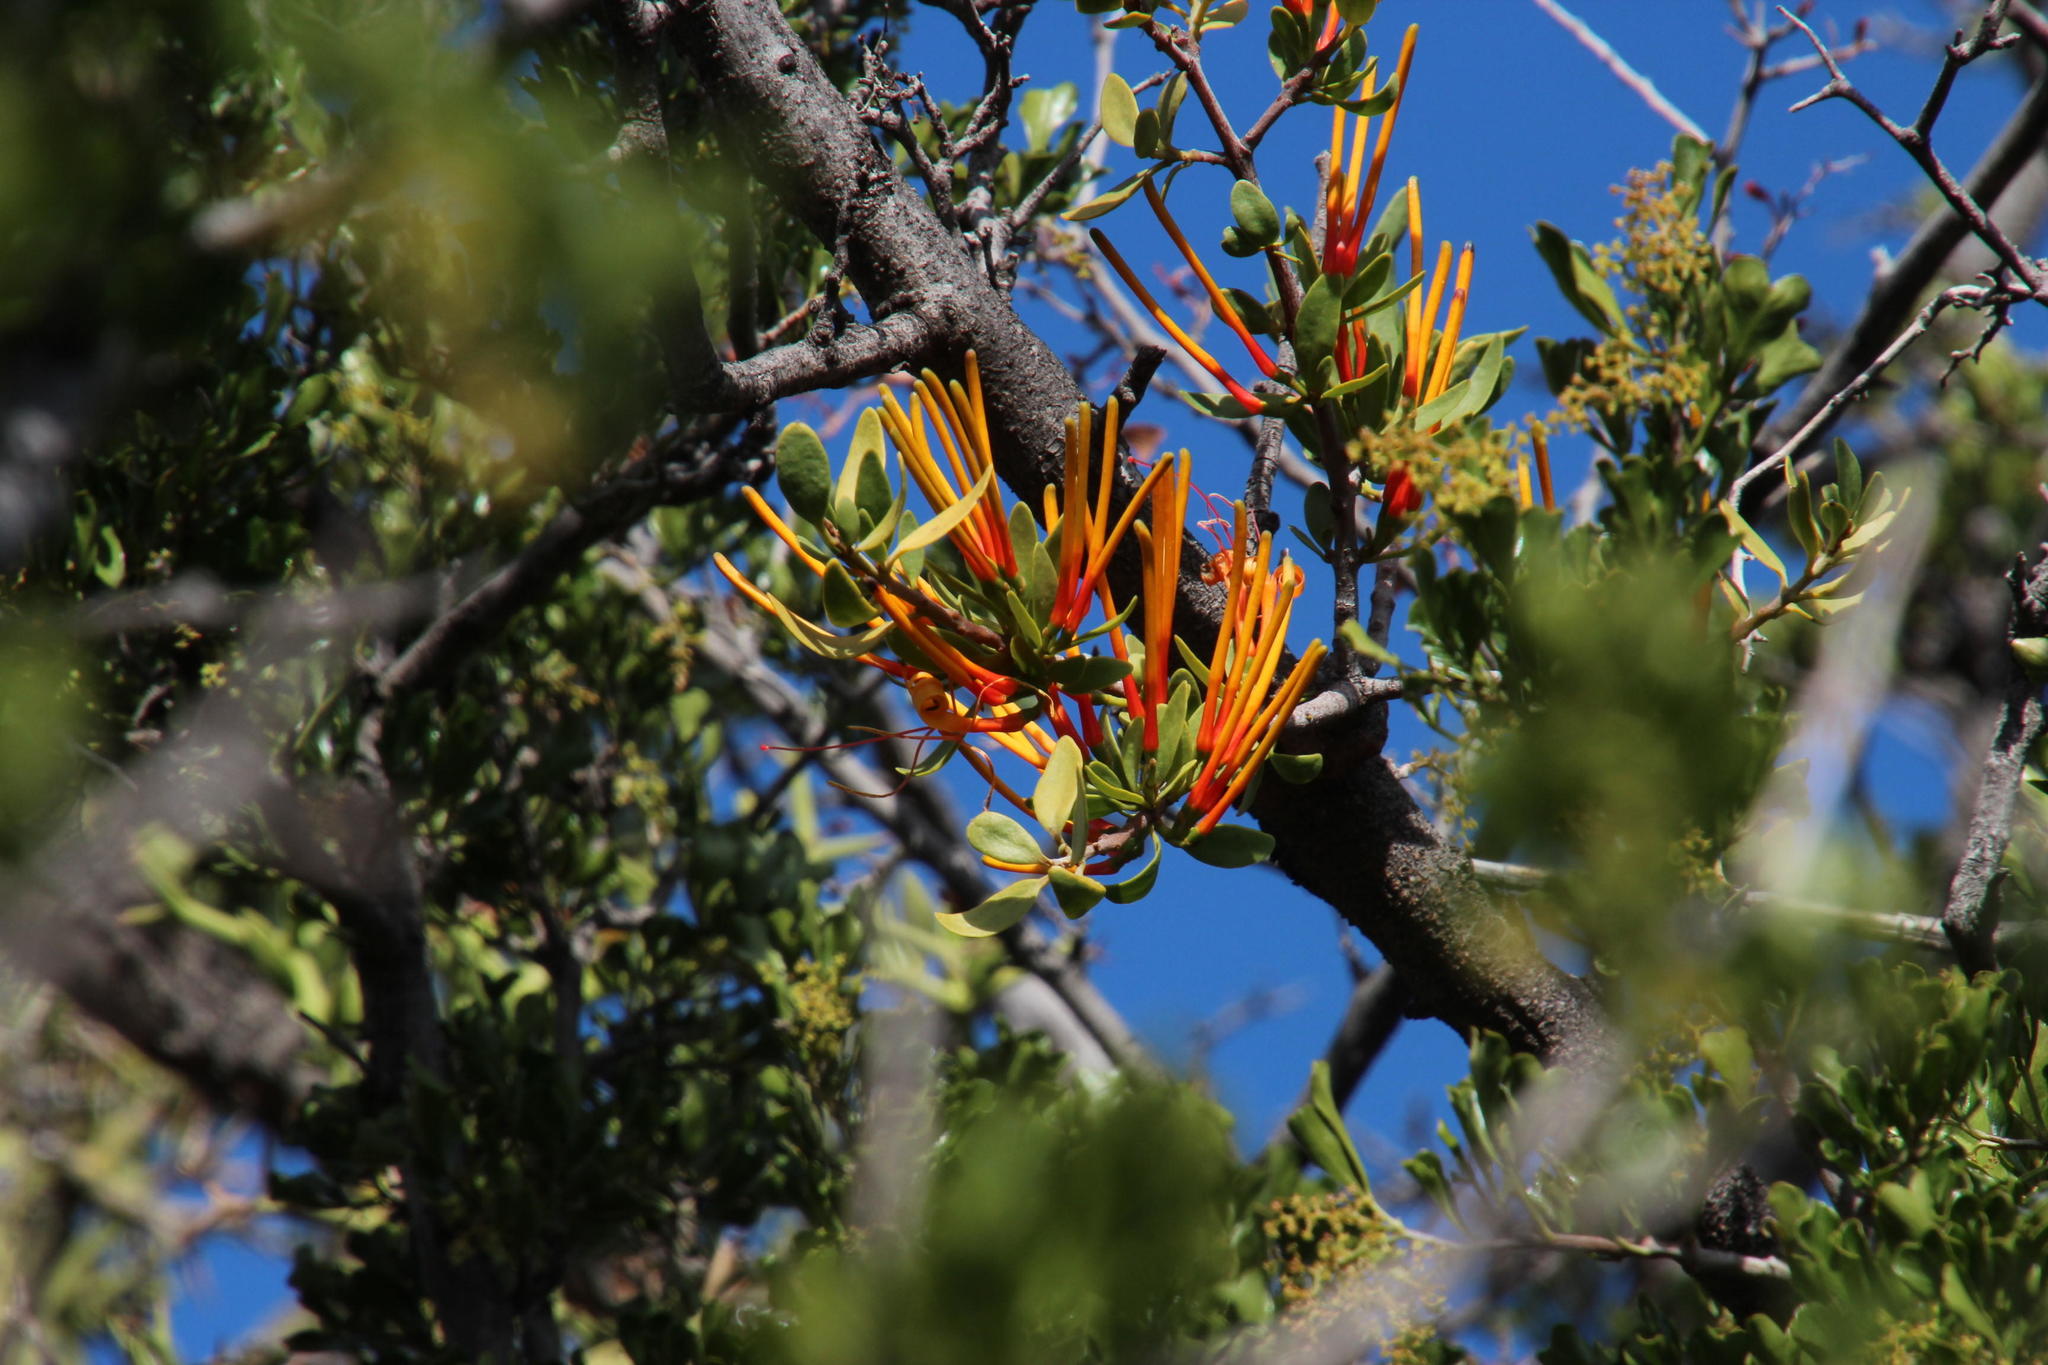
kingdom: Plantae
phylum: Tracheophyta
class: Magnoliopsida
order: Sapindales
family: Anacardiaceae
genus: Searsia
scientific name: Searsia burchellii
